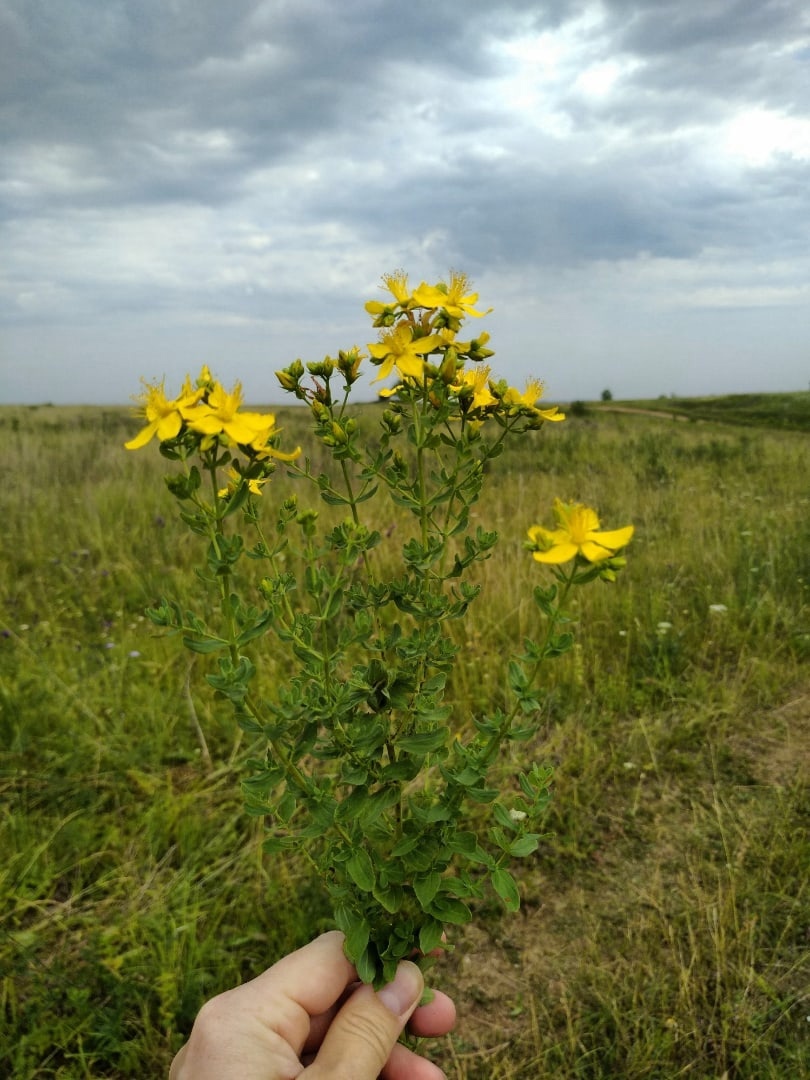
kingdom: Plantae
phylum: Tracheophyta
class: Magnoliopsida
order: Malpighiales
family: Hypericaceae
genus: Hypericum
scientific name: Hypericum perforatum
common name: Common st. johnswort
